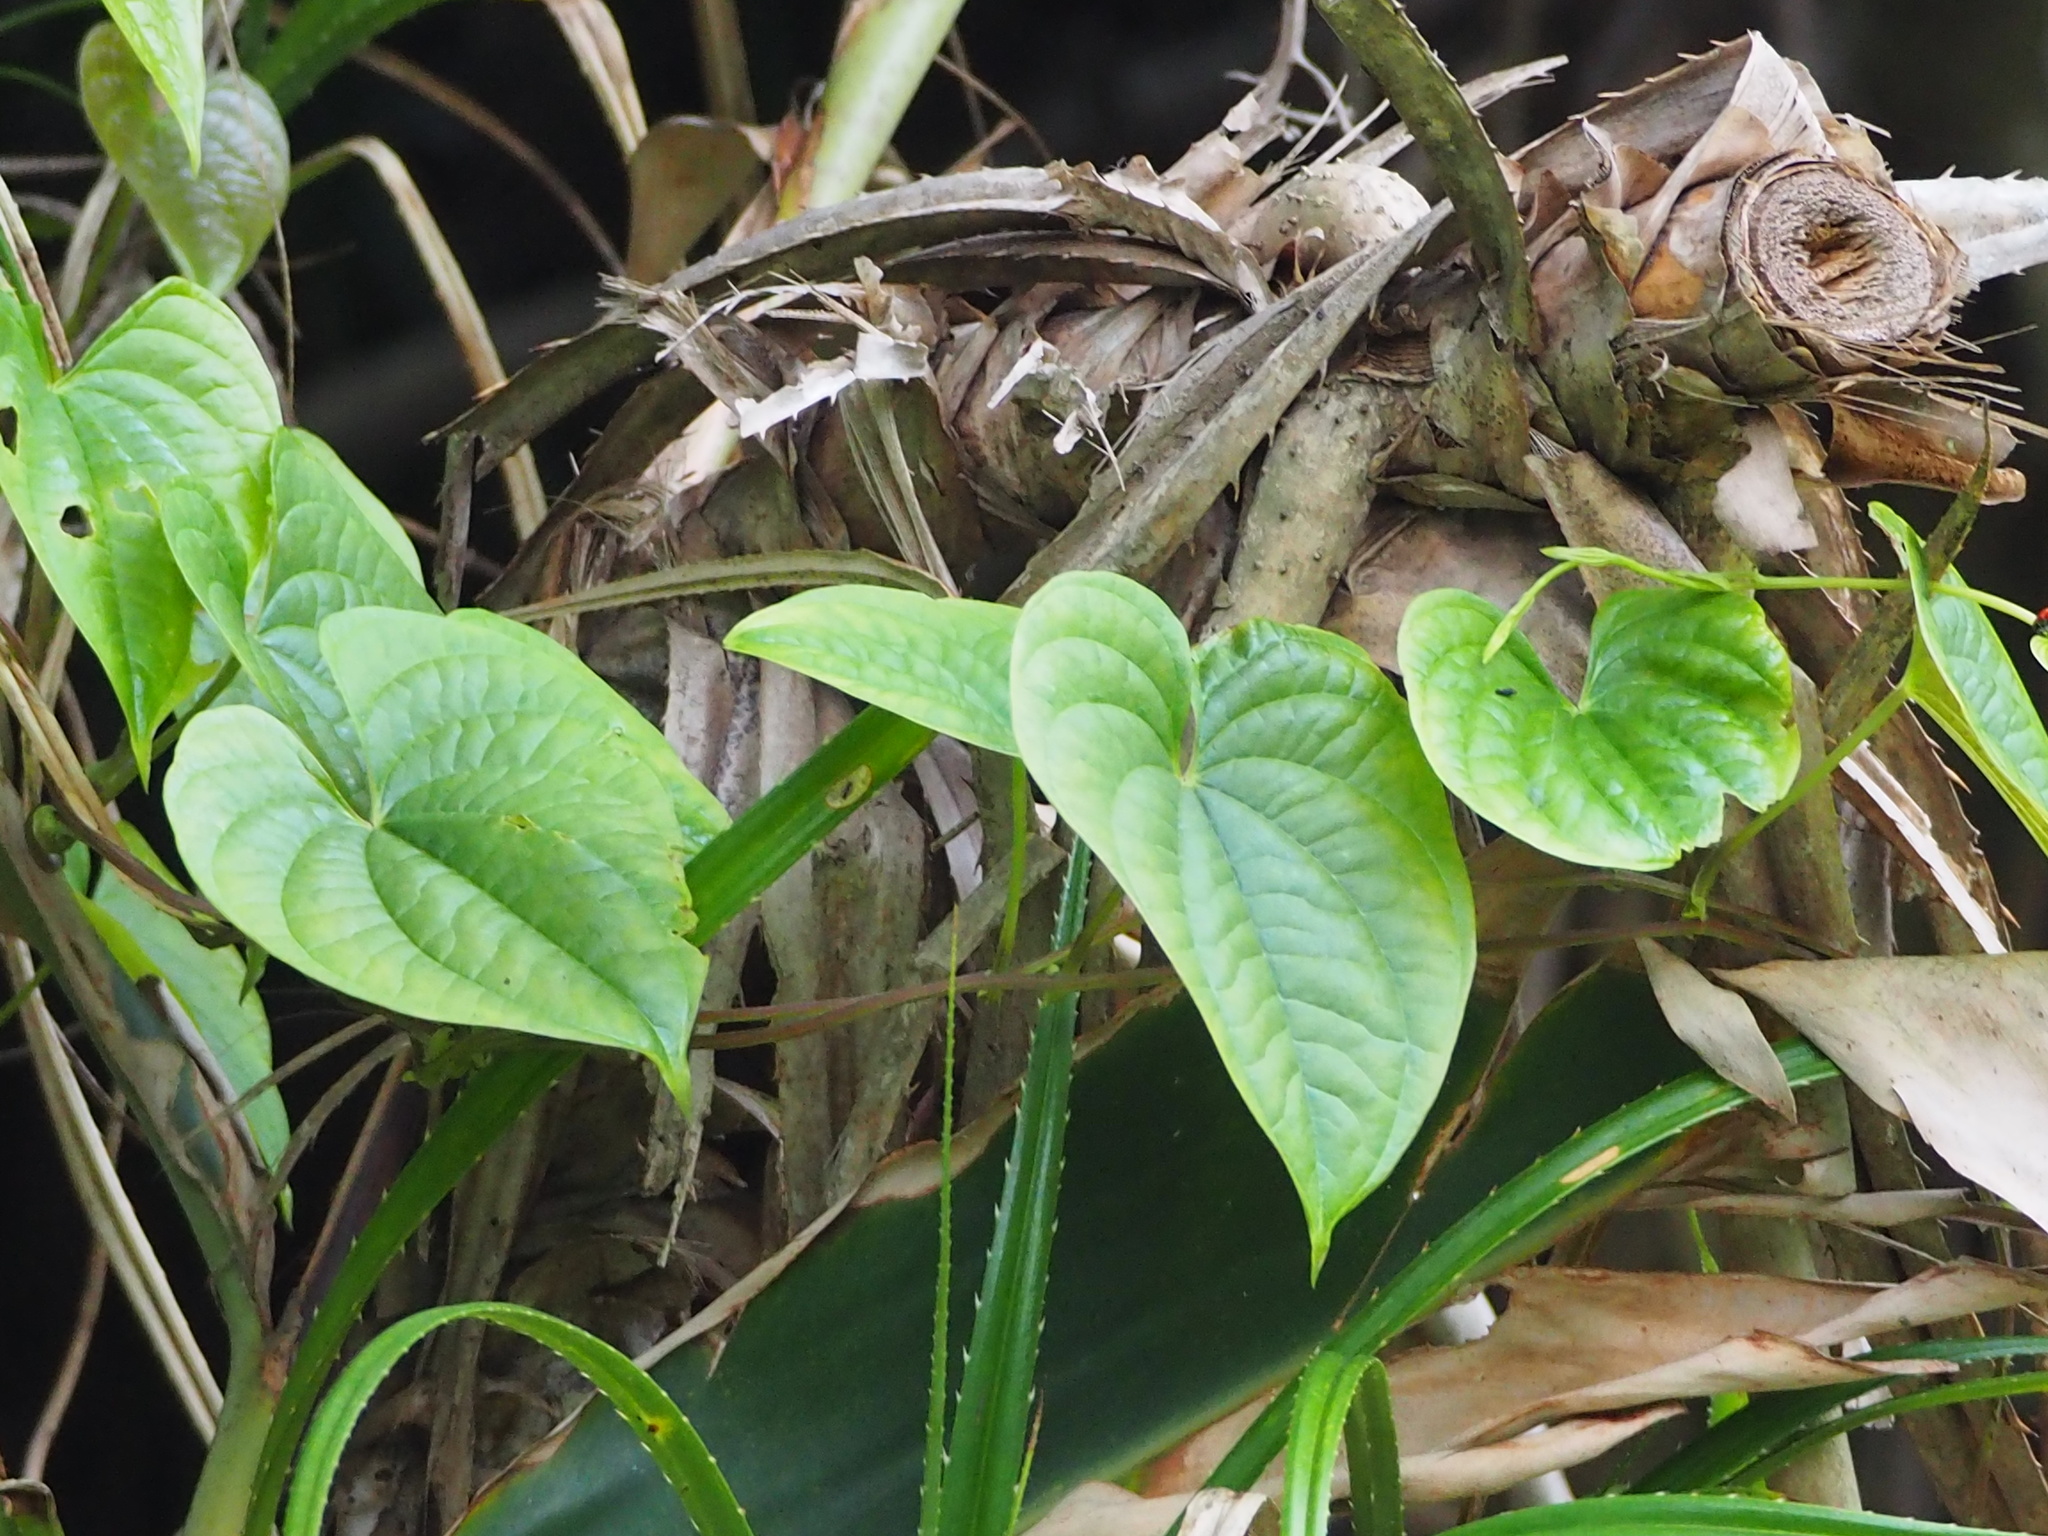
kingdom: Plantae
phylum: Tracheophyta
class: Liliopsida
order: Dioscoreales
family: Dioscoreaceae
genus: Dioscorea
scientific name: Dioscorea bulbifera
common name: Air yam
